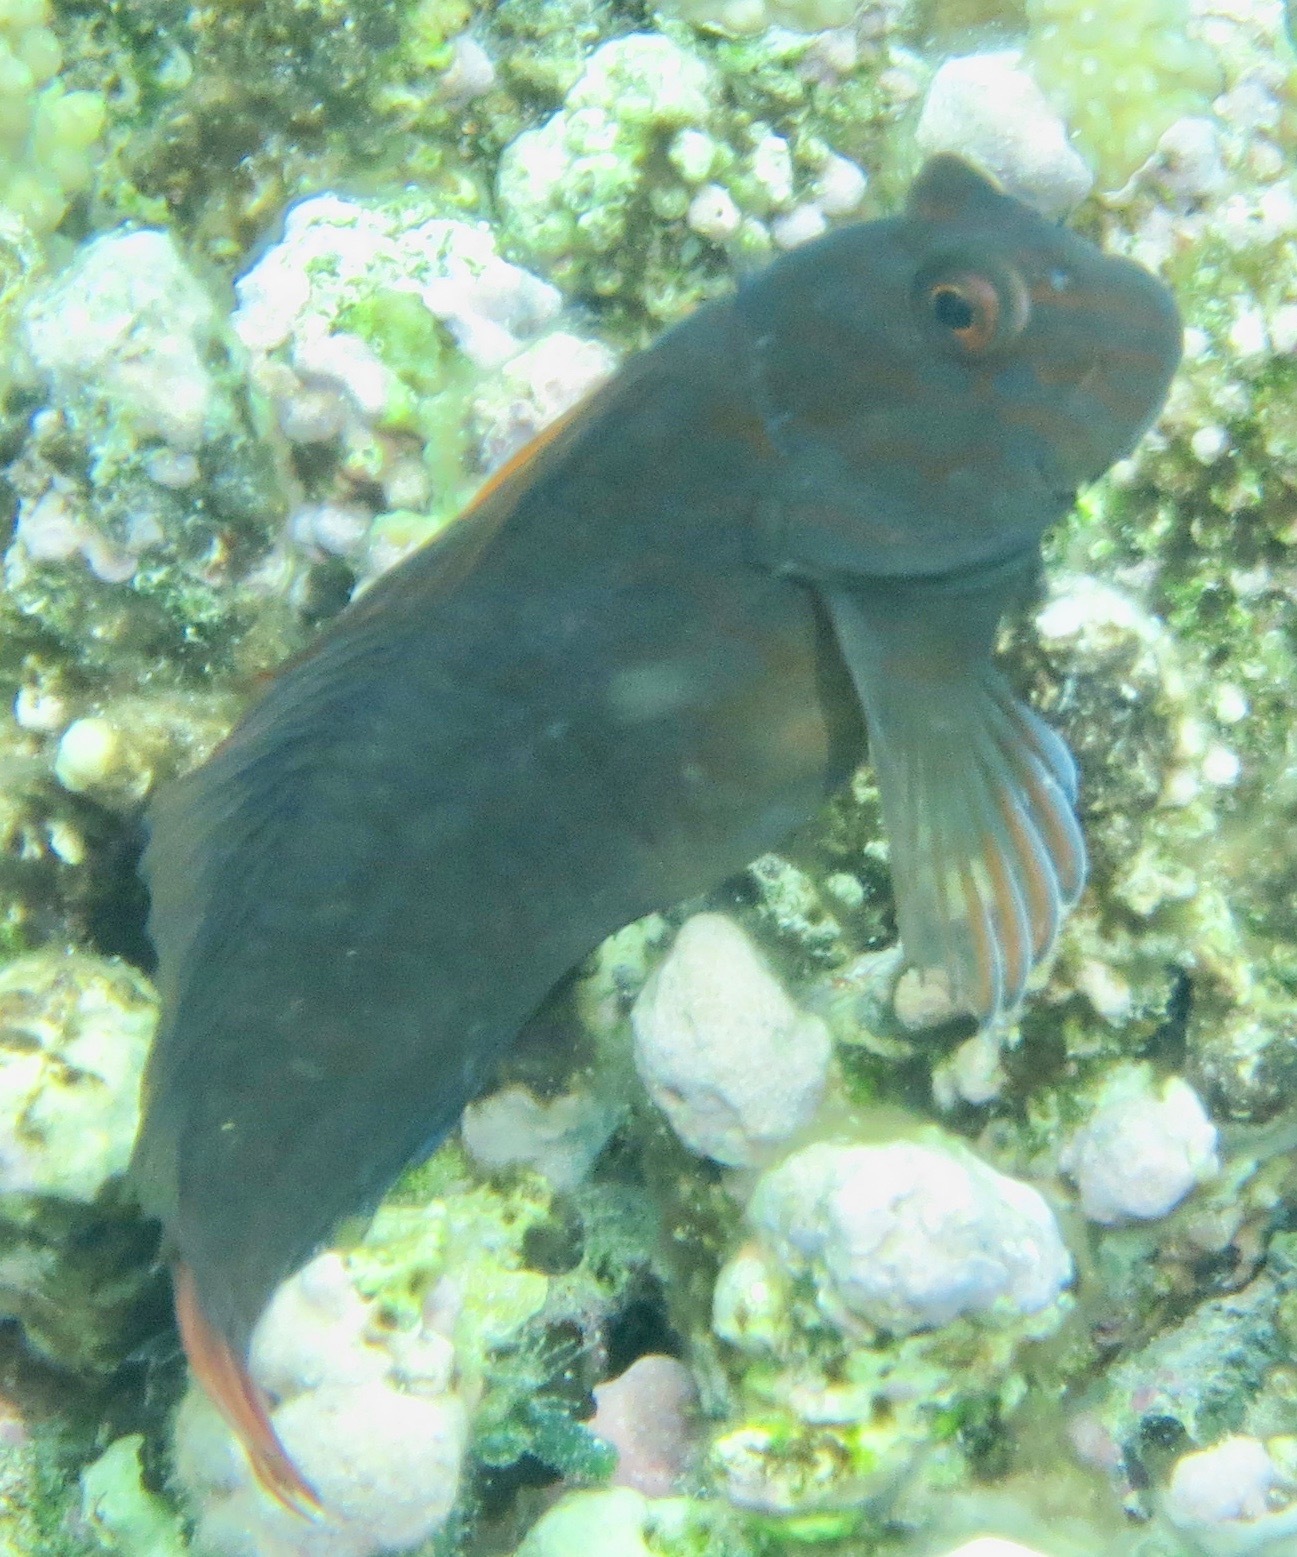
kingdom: Animalia
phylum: Chordata
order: Perciformes
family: Blenniidae
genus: Cirripectes
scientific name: Cirripectes castaneus
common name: Chestnut blenny
